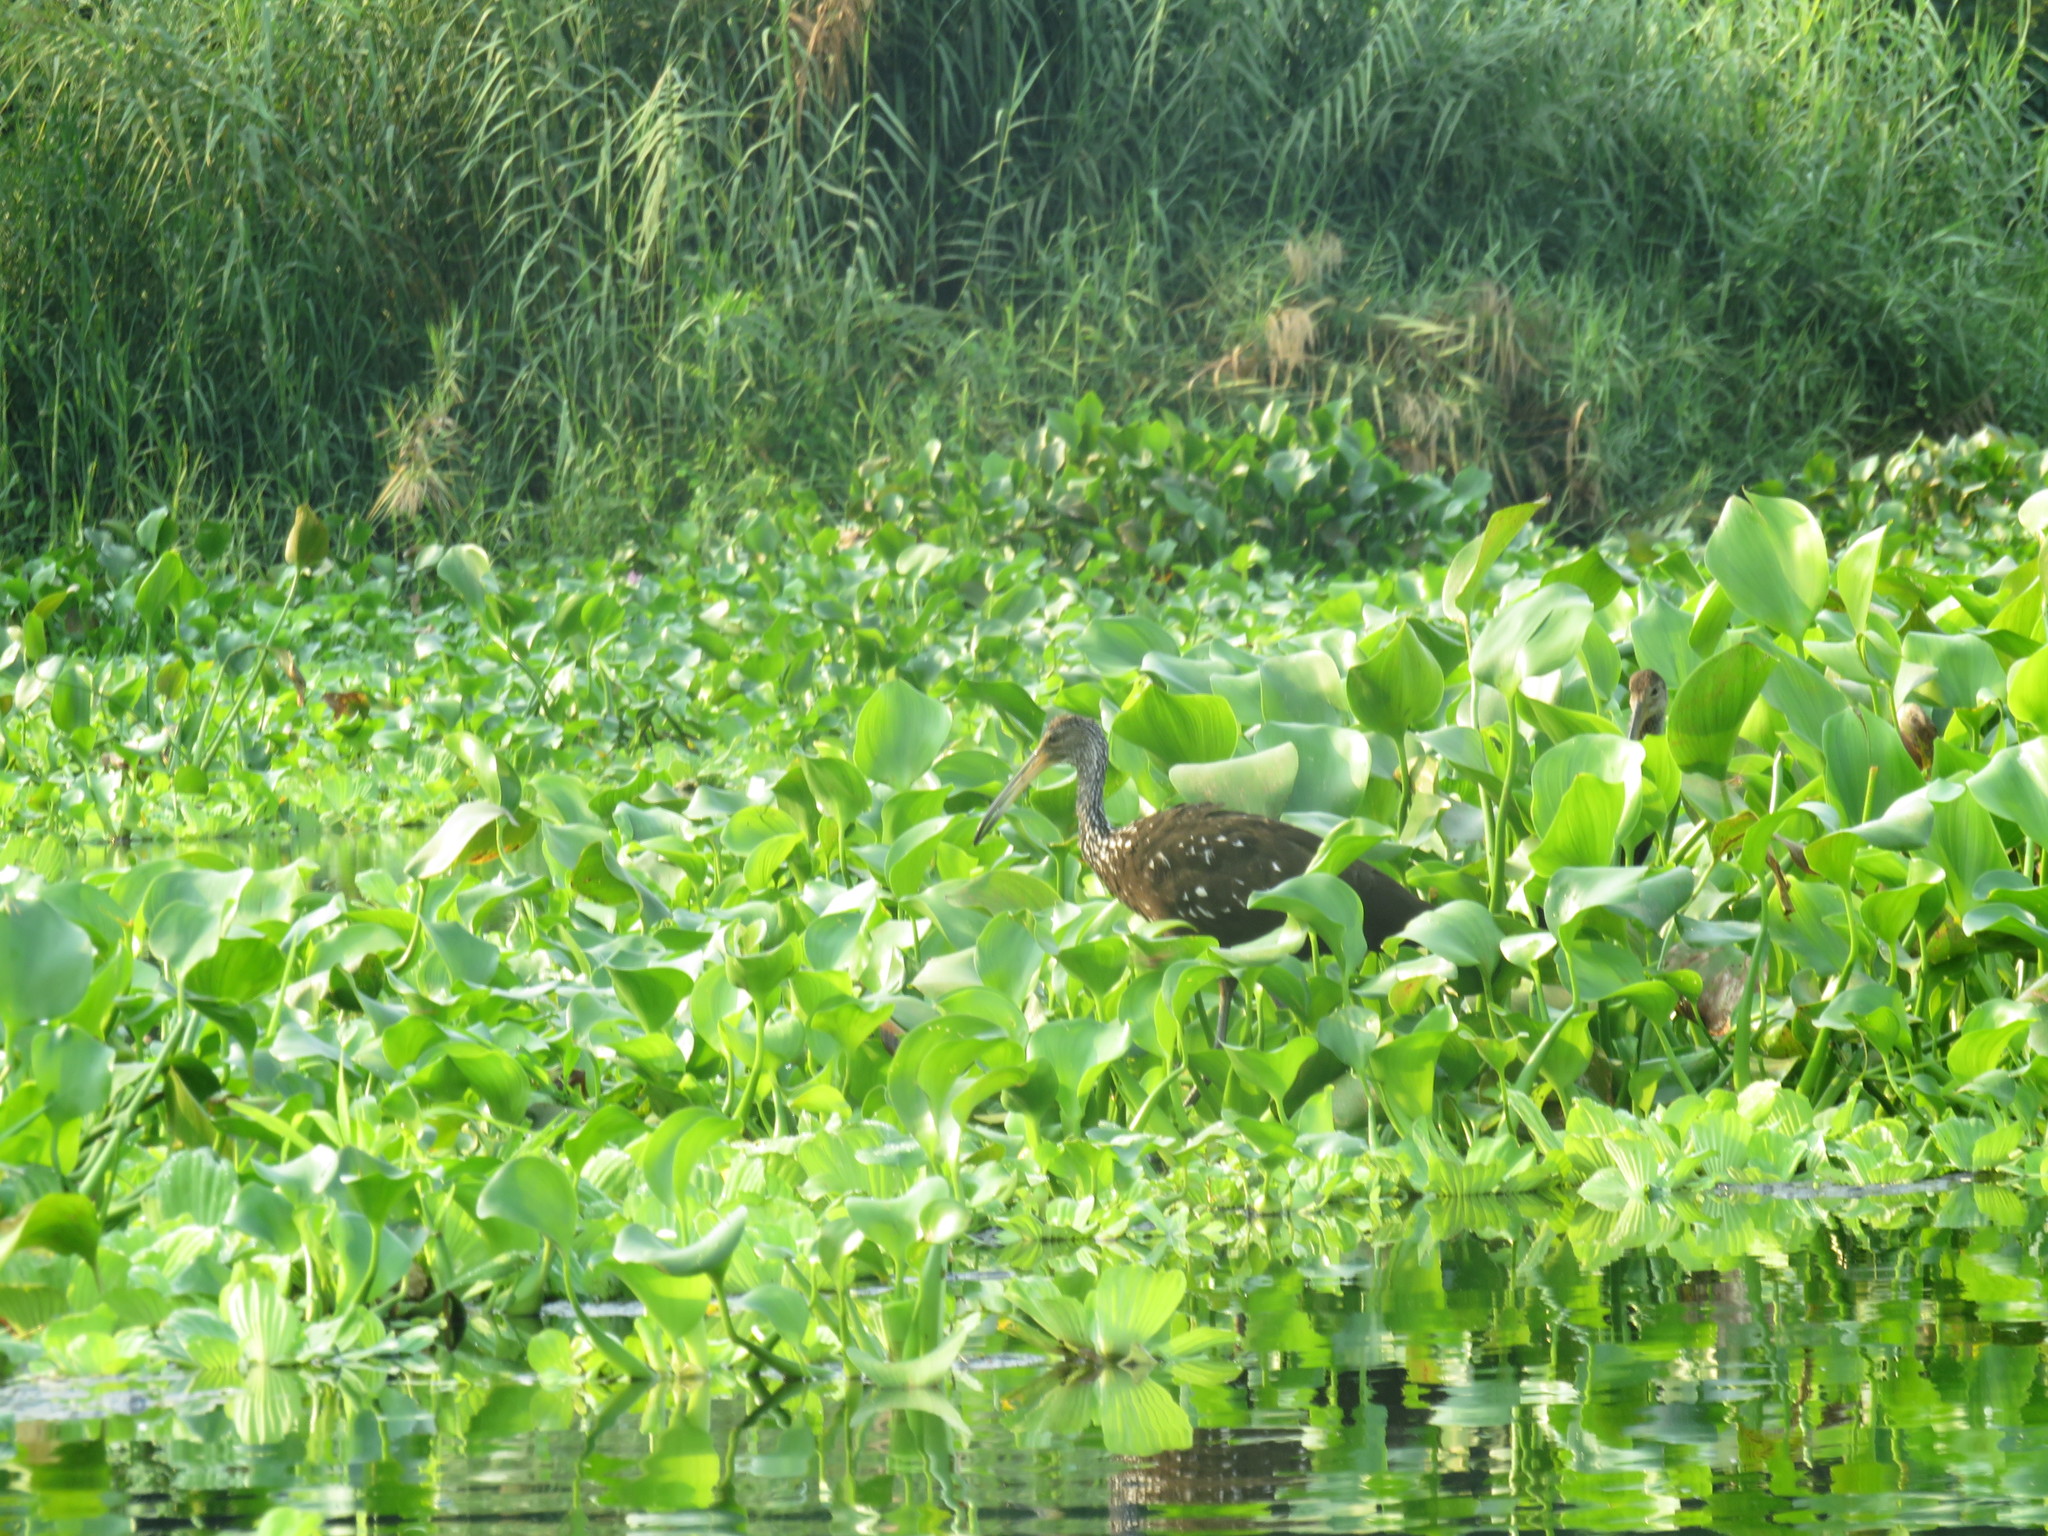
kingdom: Animalia
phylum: Chordata
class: Aves
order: Gruiformes
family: Aramidae
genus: Aramus
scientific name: Aramus guarauna
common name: Limpkin
